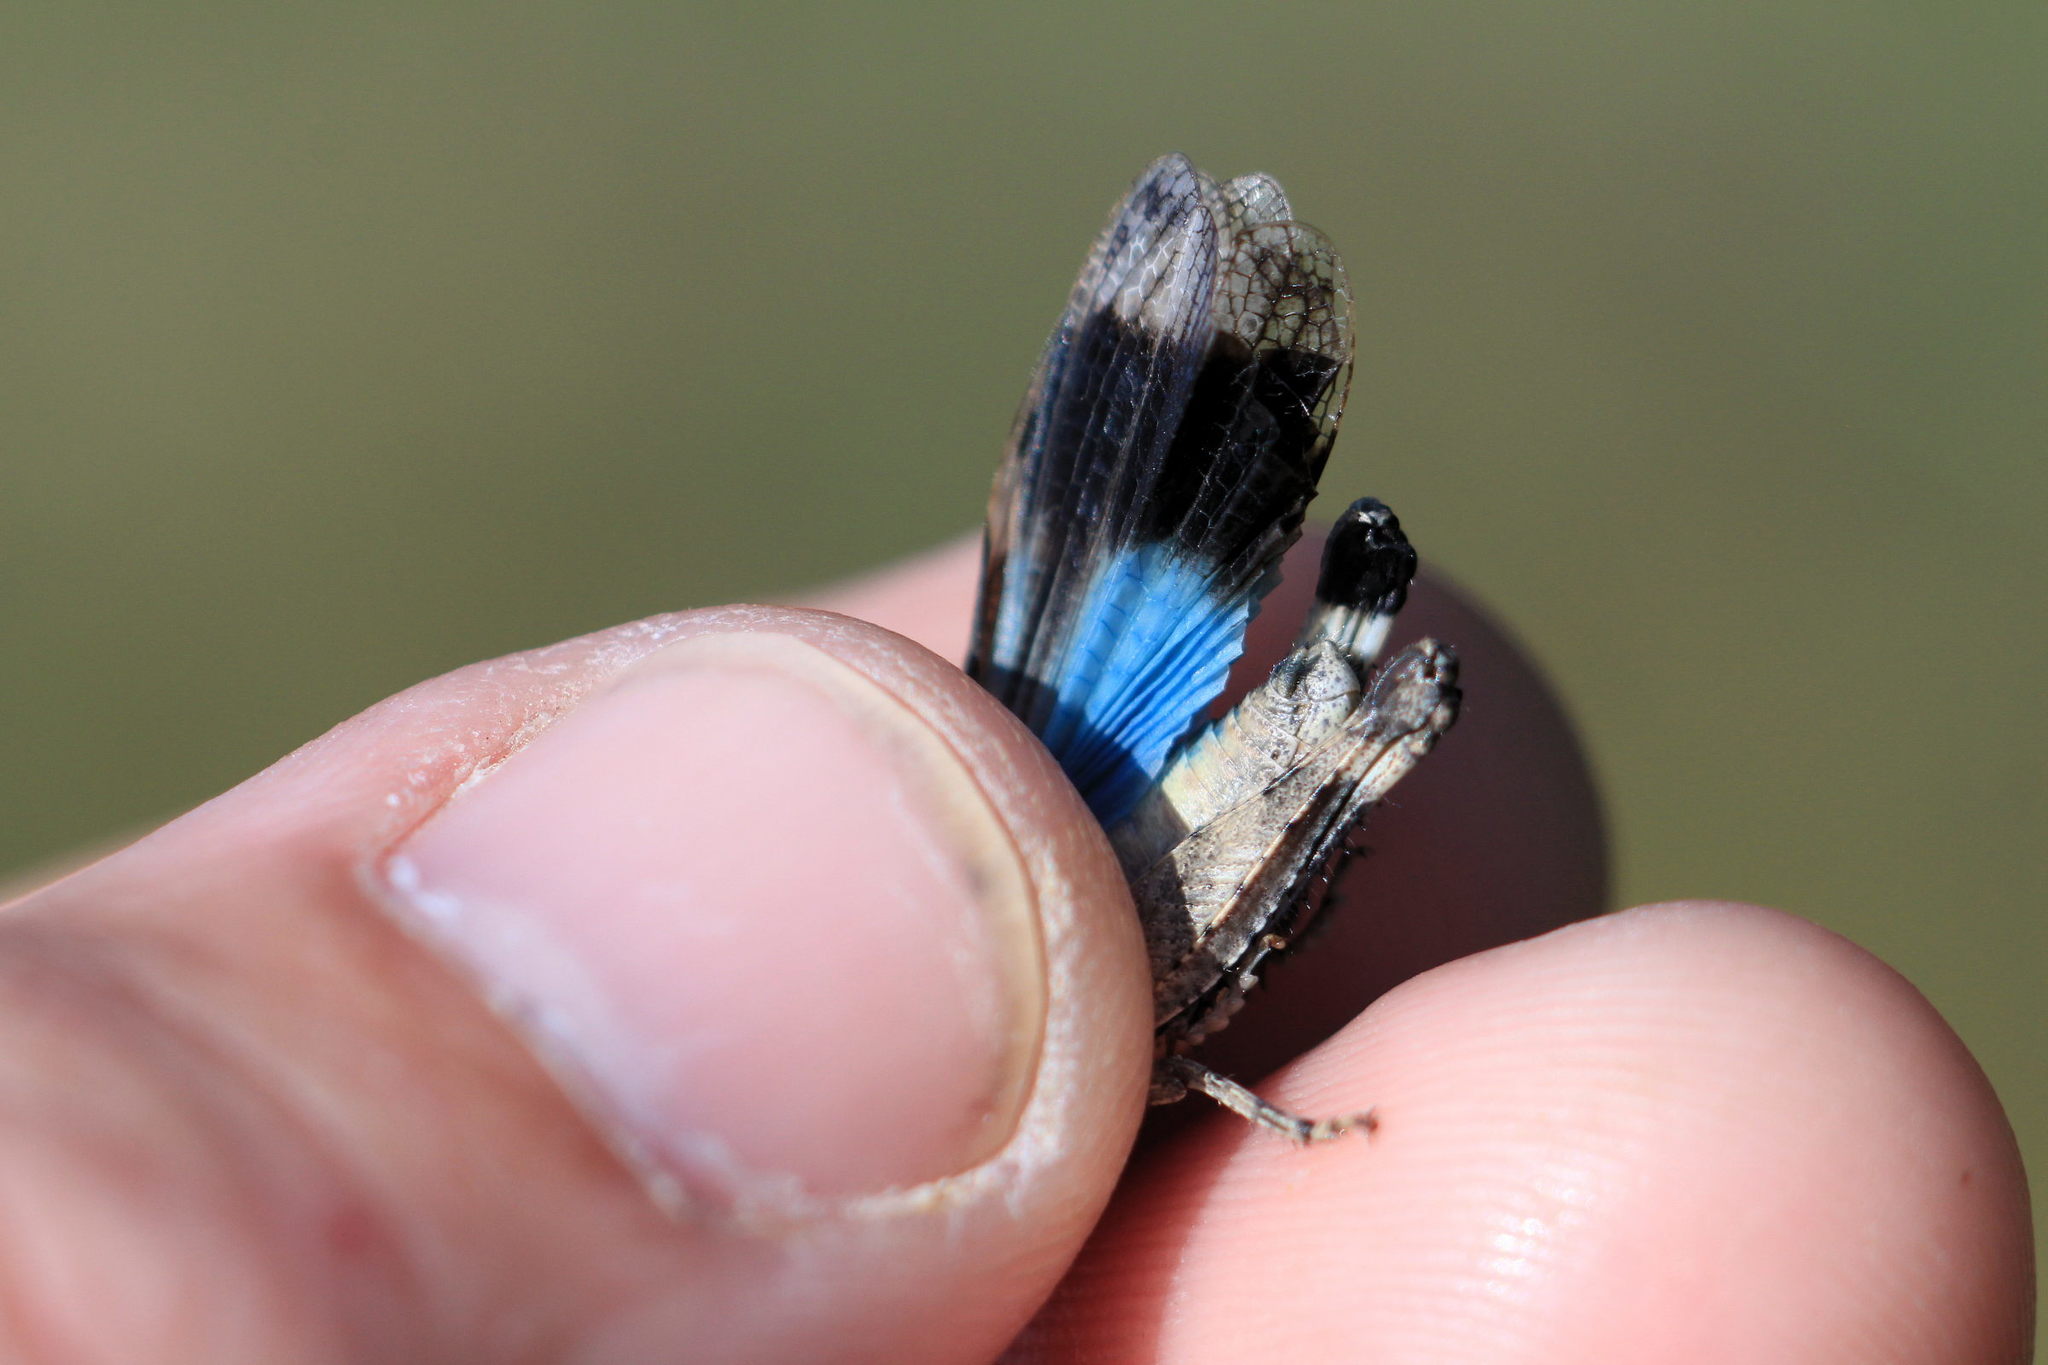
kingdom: Animalia
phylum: Arthropoda
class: Insecta
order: Orthoptera
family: Acrididae
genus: Oedipoda
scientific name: Oedipoda caerulescens
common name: Blue-winged grasshopper
